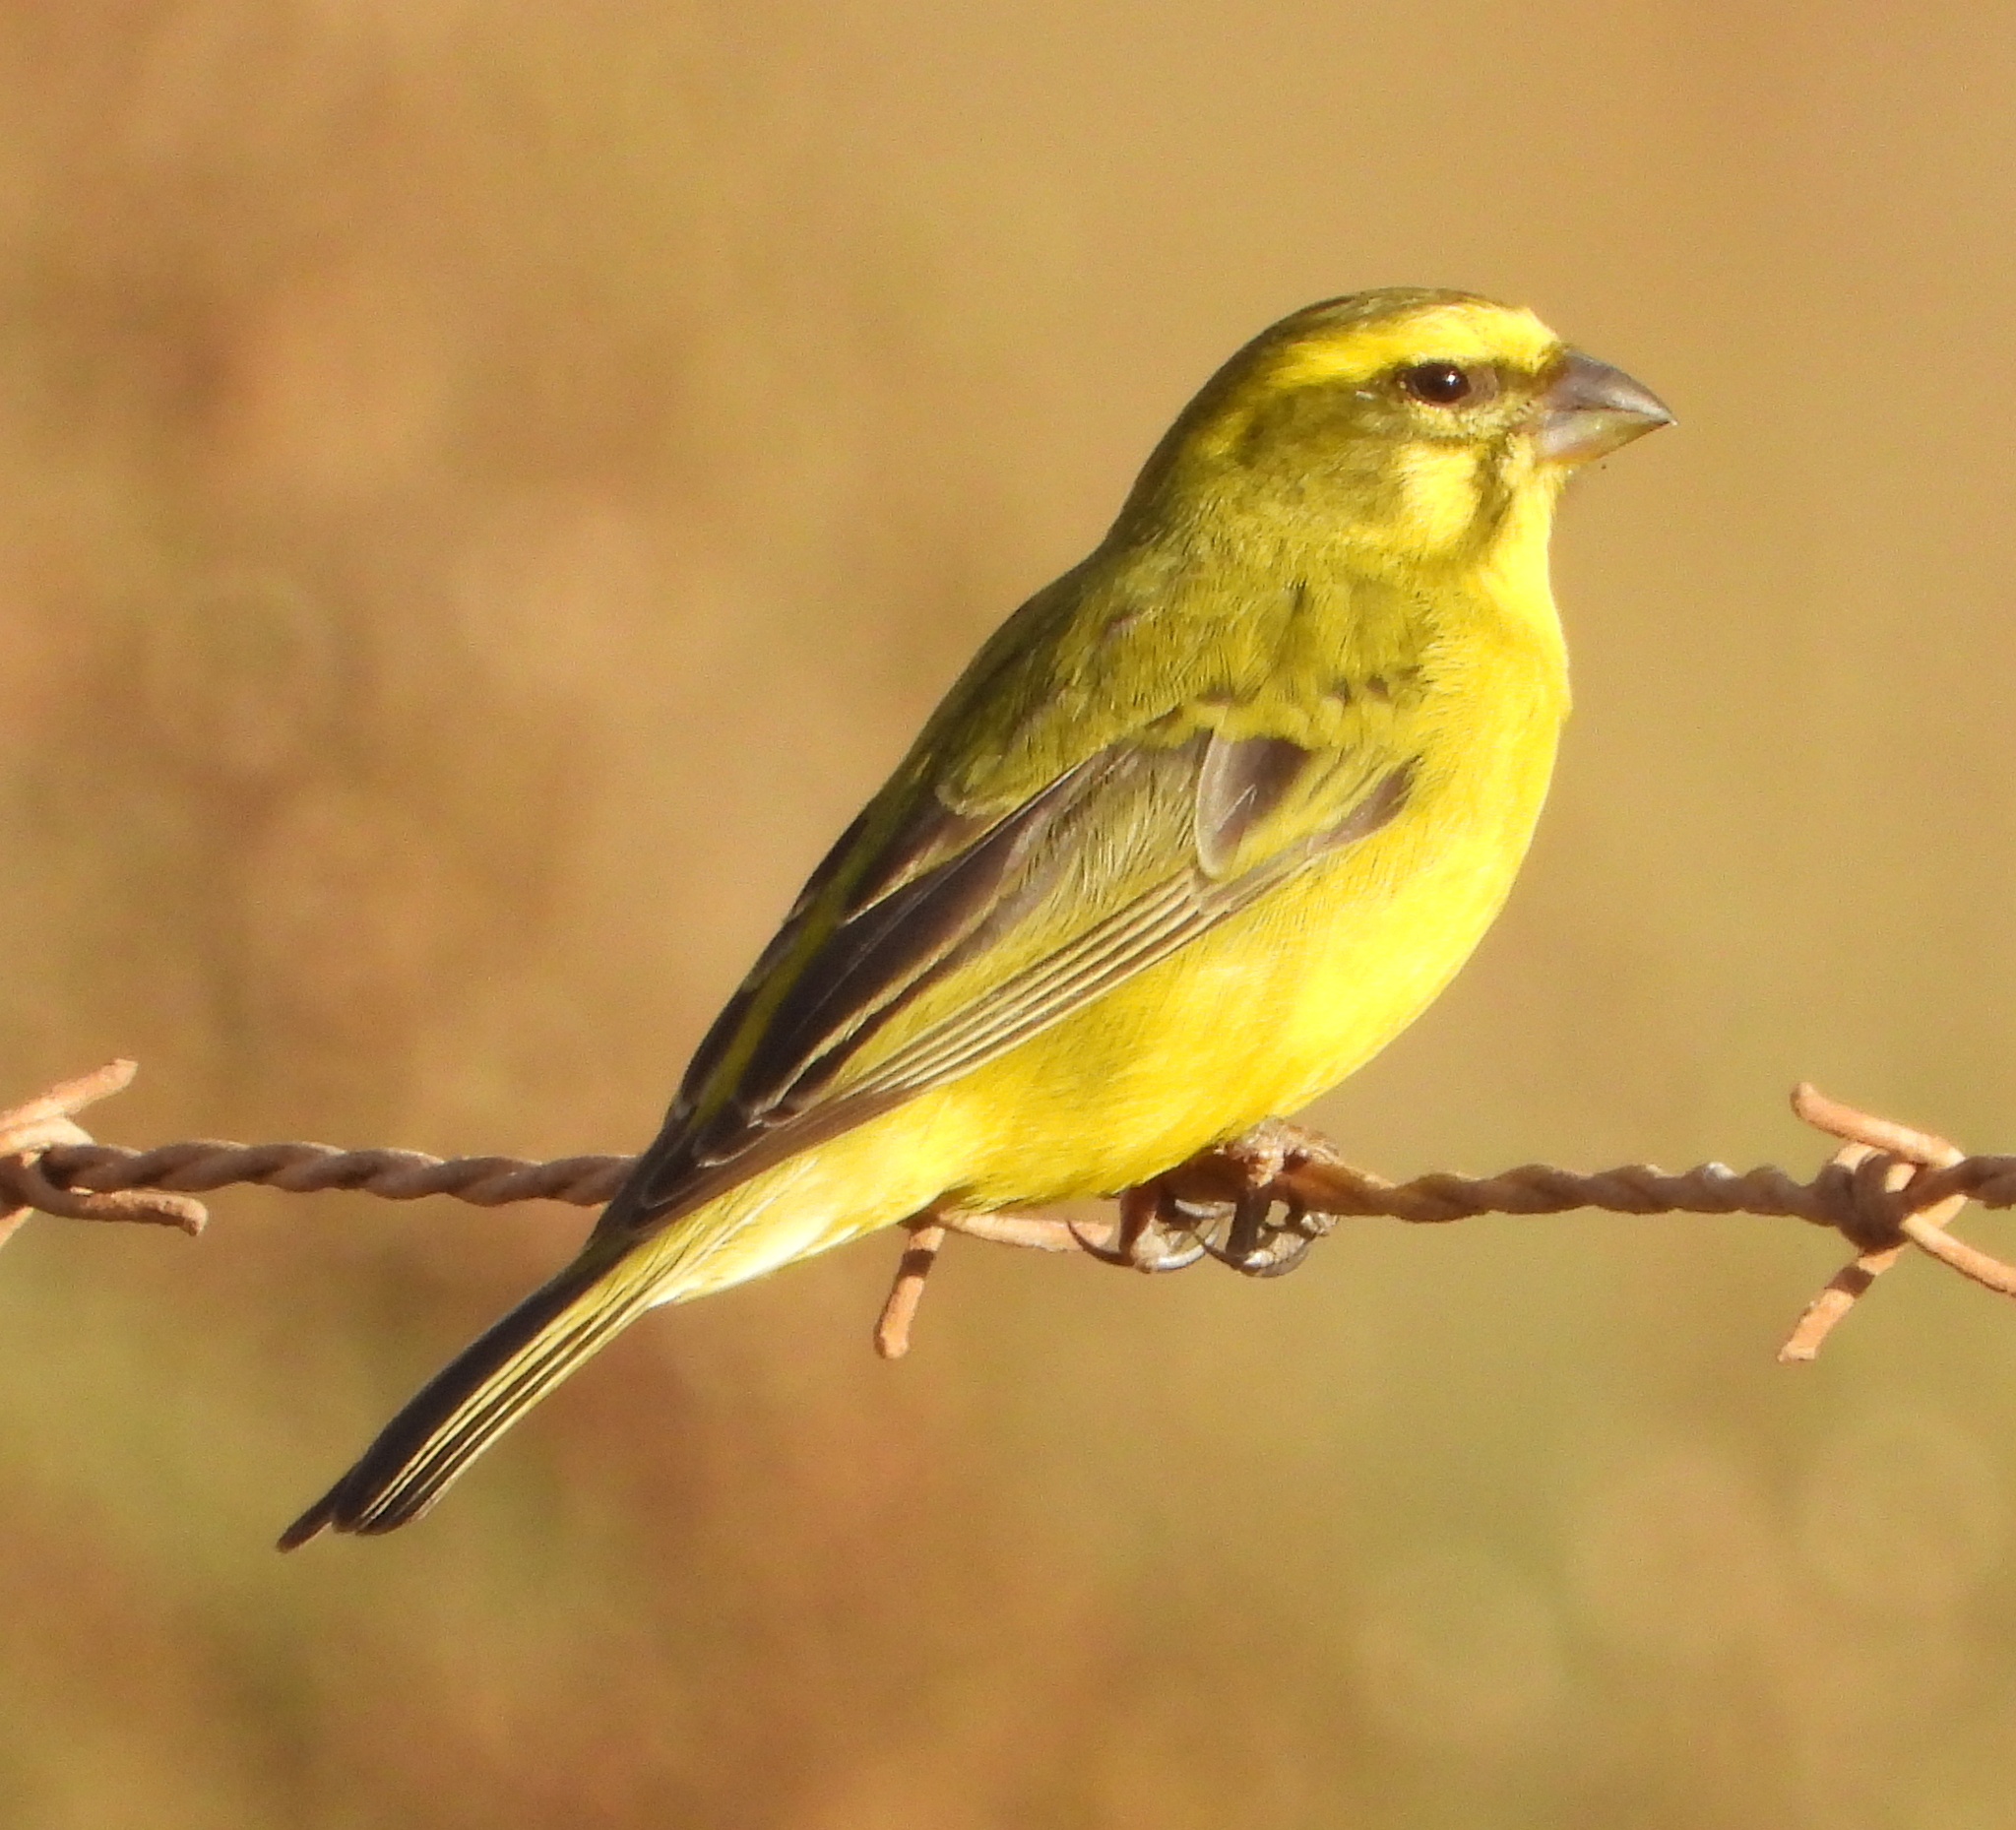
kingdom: Animalia
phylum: Chordata
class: Aves
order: Passeriformes
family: Fringillidae
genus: Crithagra
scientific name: Crithagra flaviventris
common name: Yellow canary
